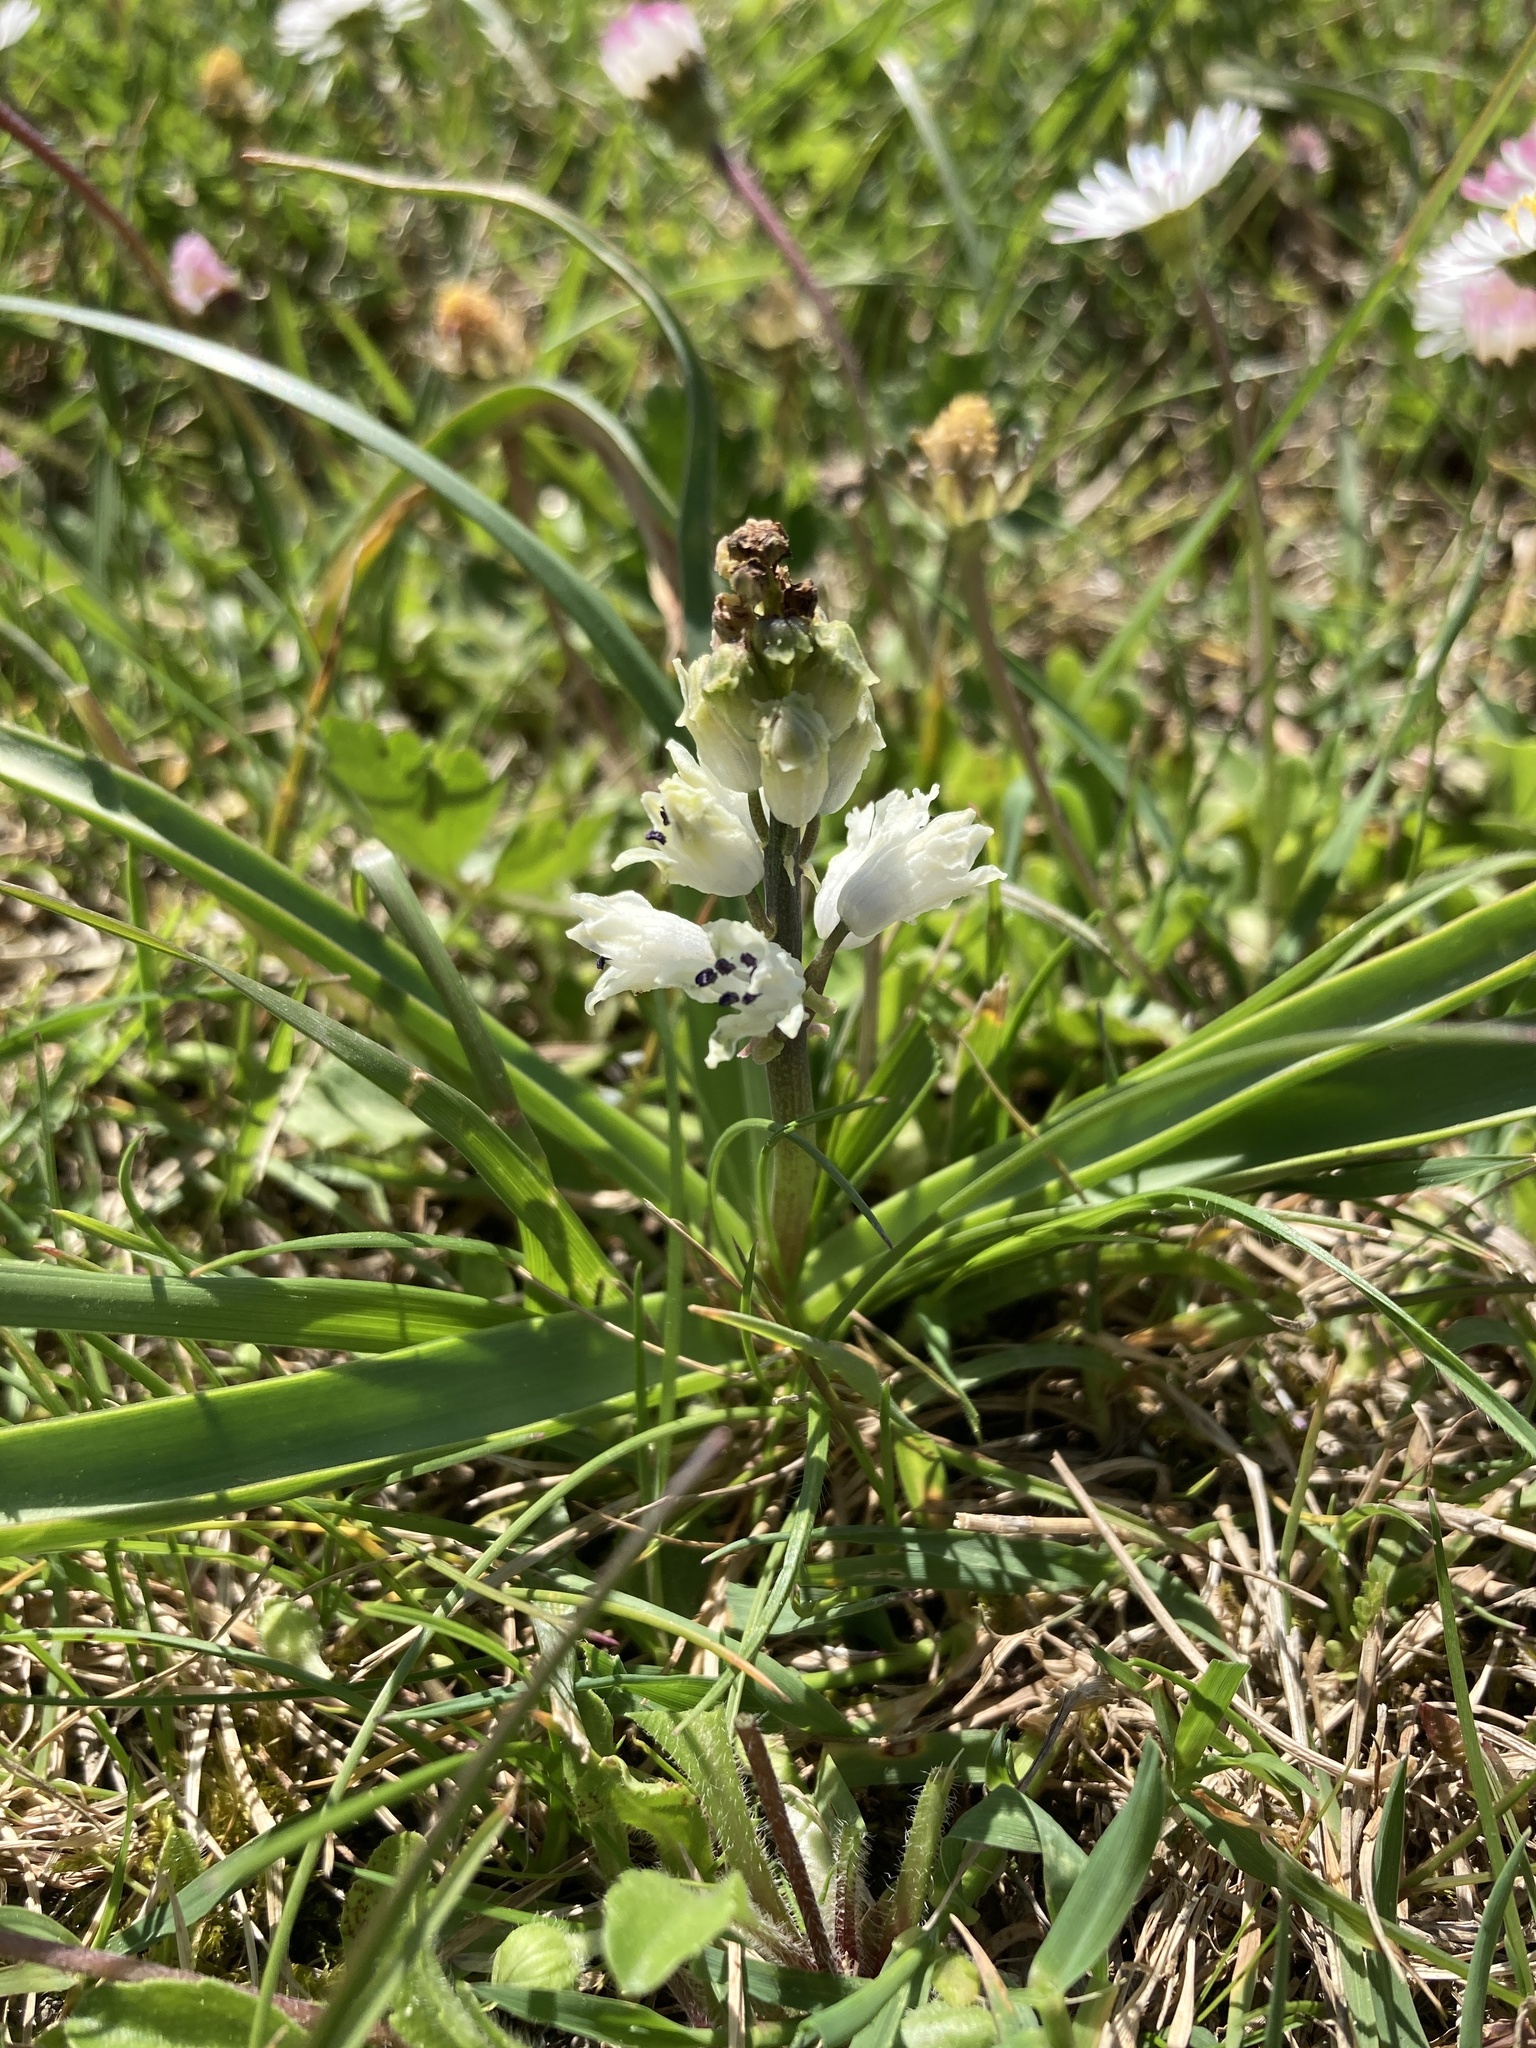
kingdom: Plantae
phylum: Tracheophyta
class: Liliopsida
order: Asparagales
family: Asparagaceae
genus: Bellevalia
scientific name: Bellevalia romana
